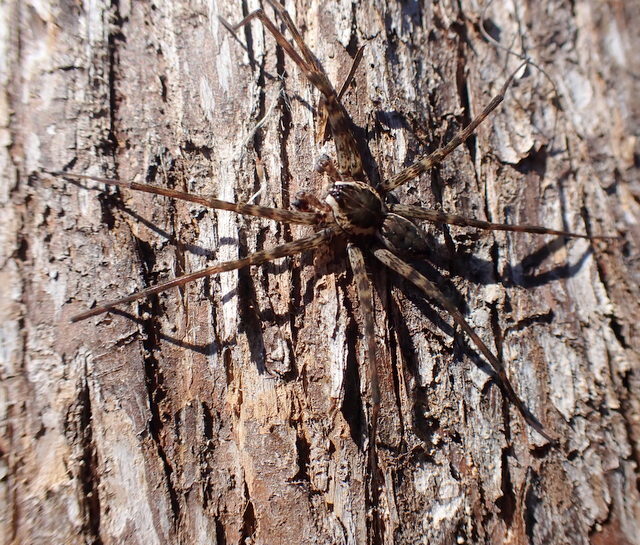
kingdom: Animalia
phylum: Arthropoda
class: Arachnida
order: Araneae
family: Pisauridae
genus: Dolomedes
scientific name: Dolomedes tenebrosus
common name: Dark fishing spider
